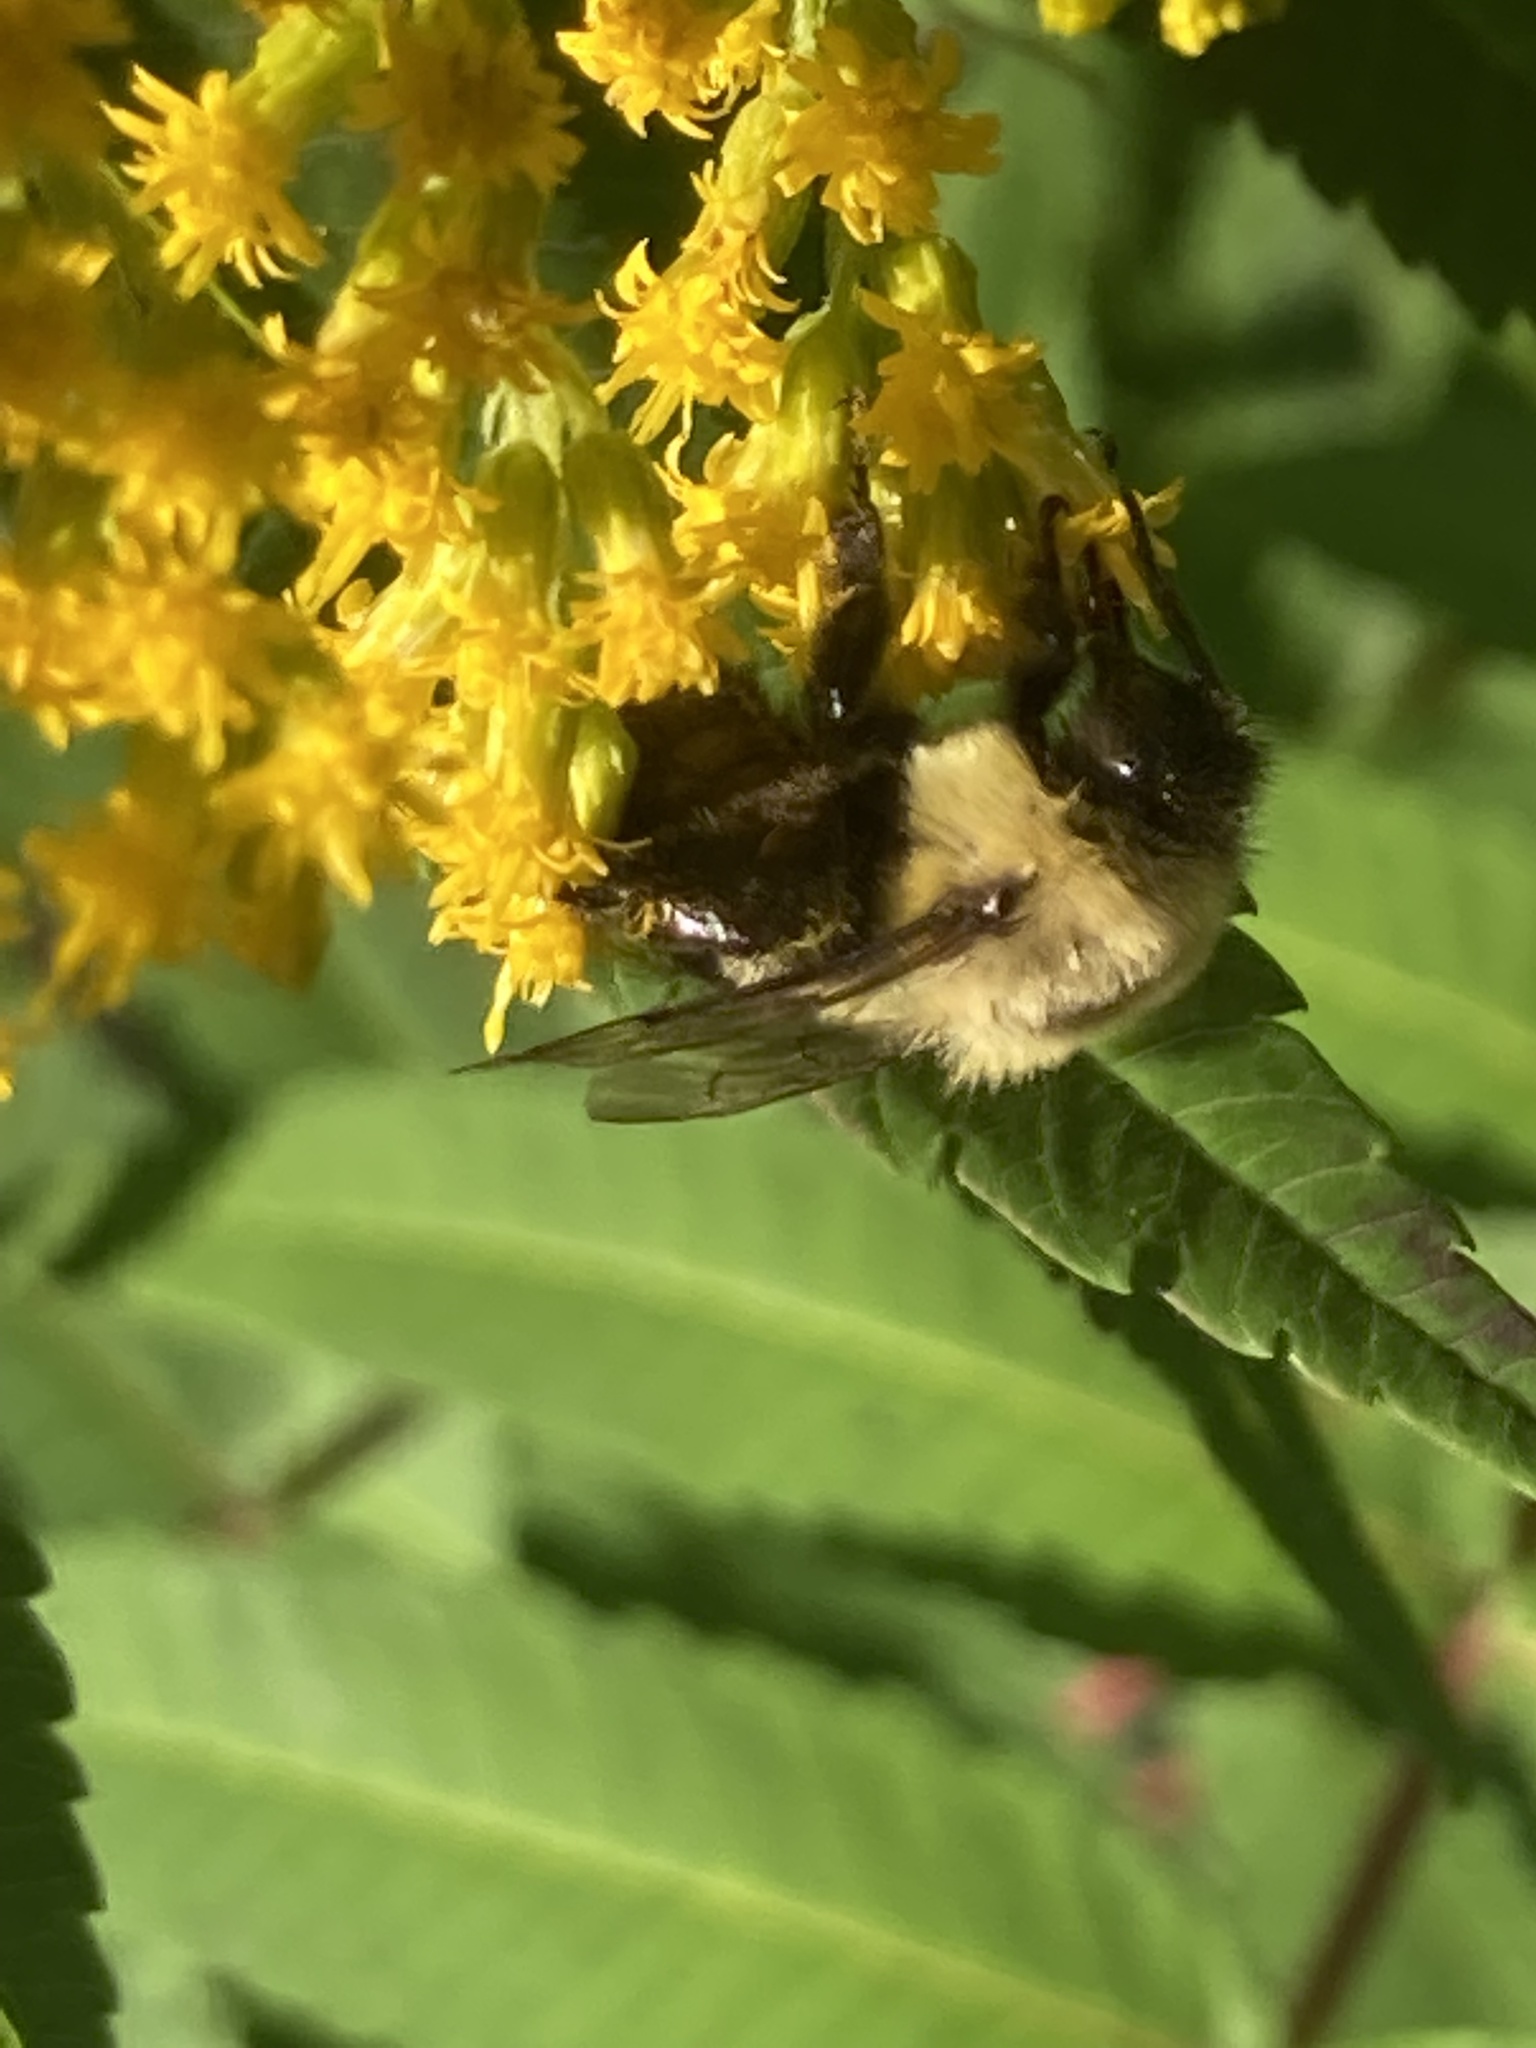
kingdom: Animalia
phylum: Arthropoda
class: Insecta
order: Hymenoptera
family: Apidae
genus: Bombus
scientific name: Bombus impatiens
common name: Common eastern bumble bee
